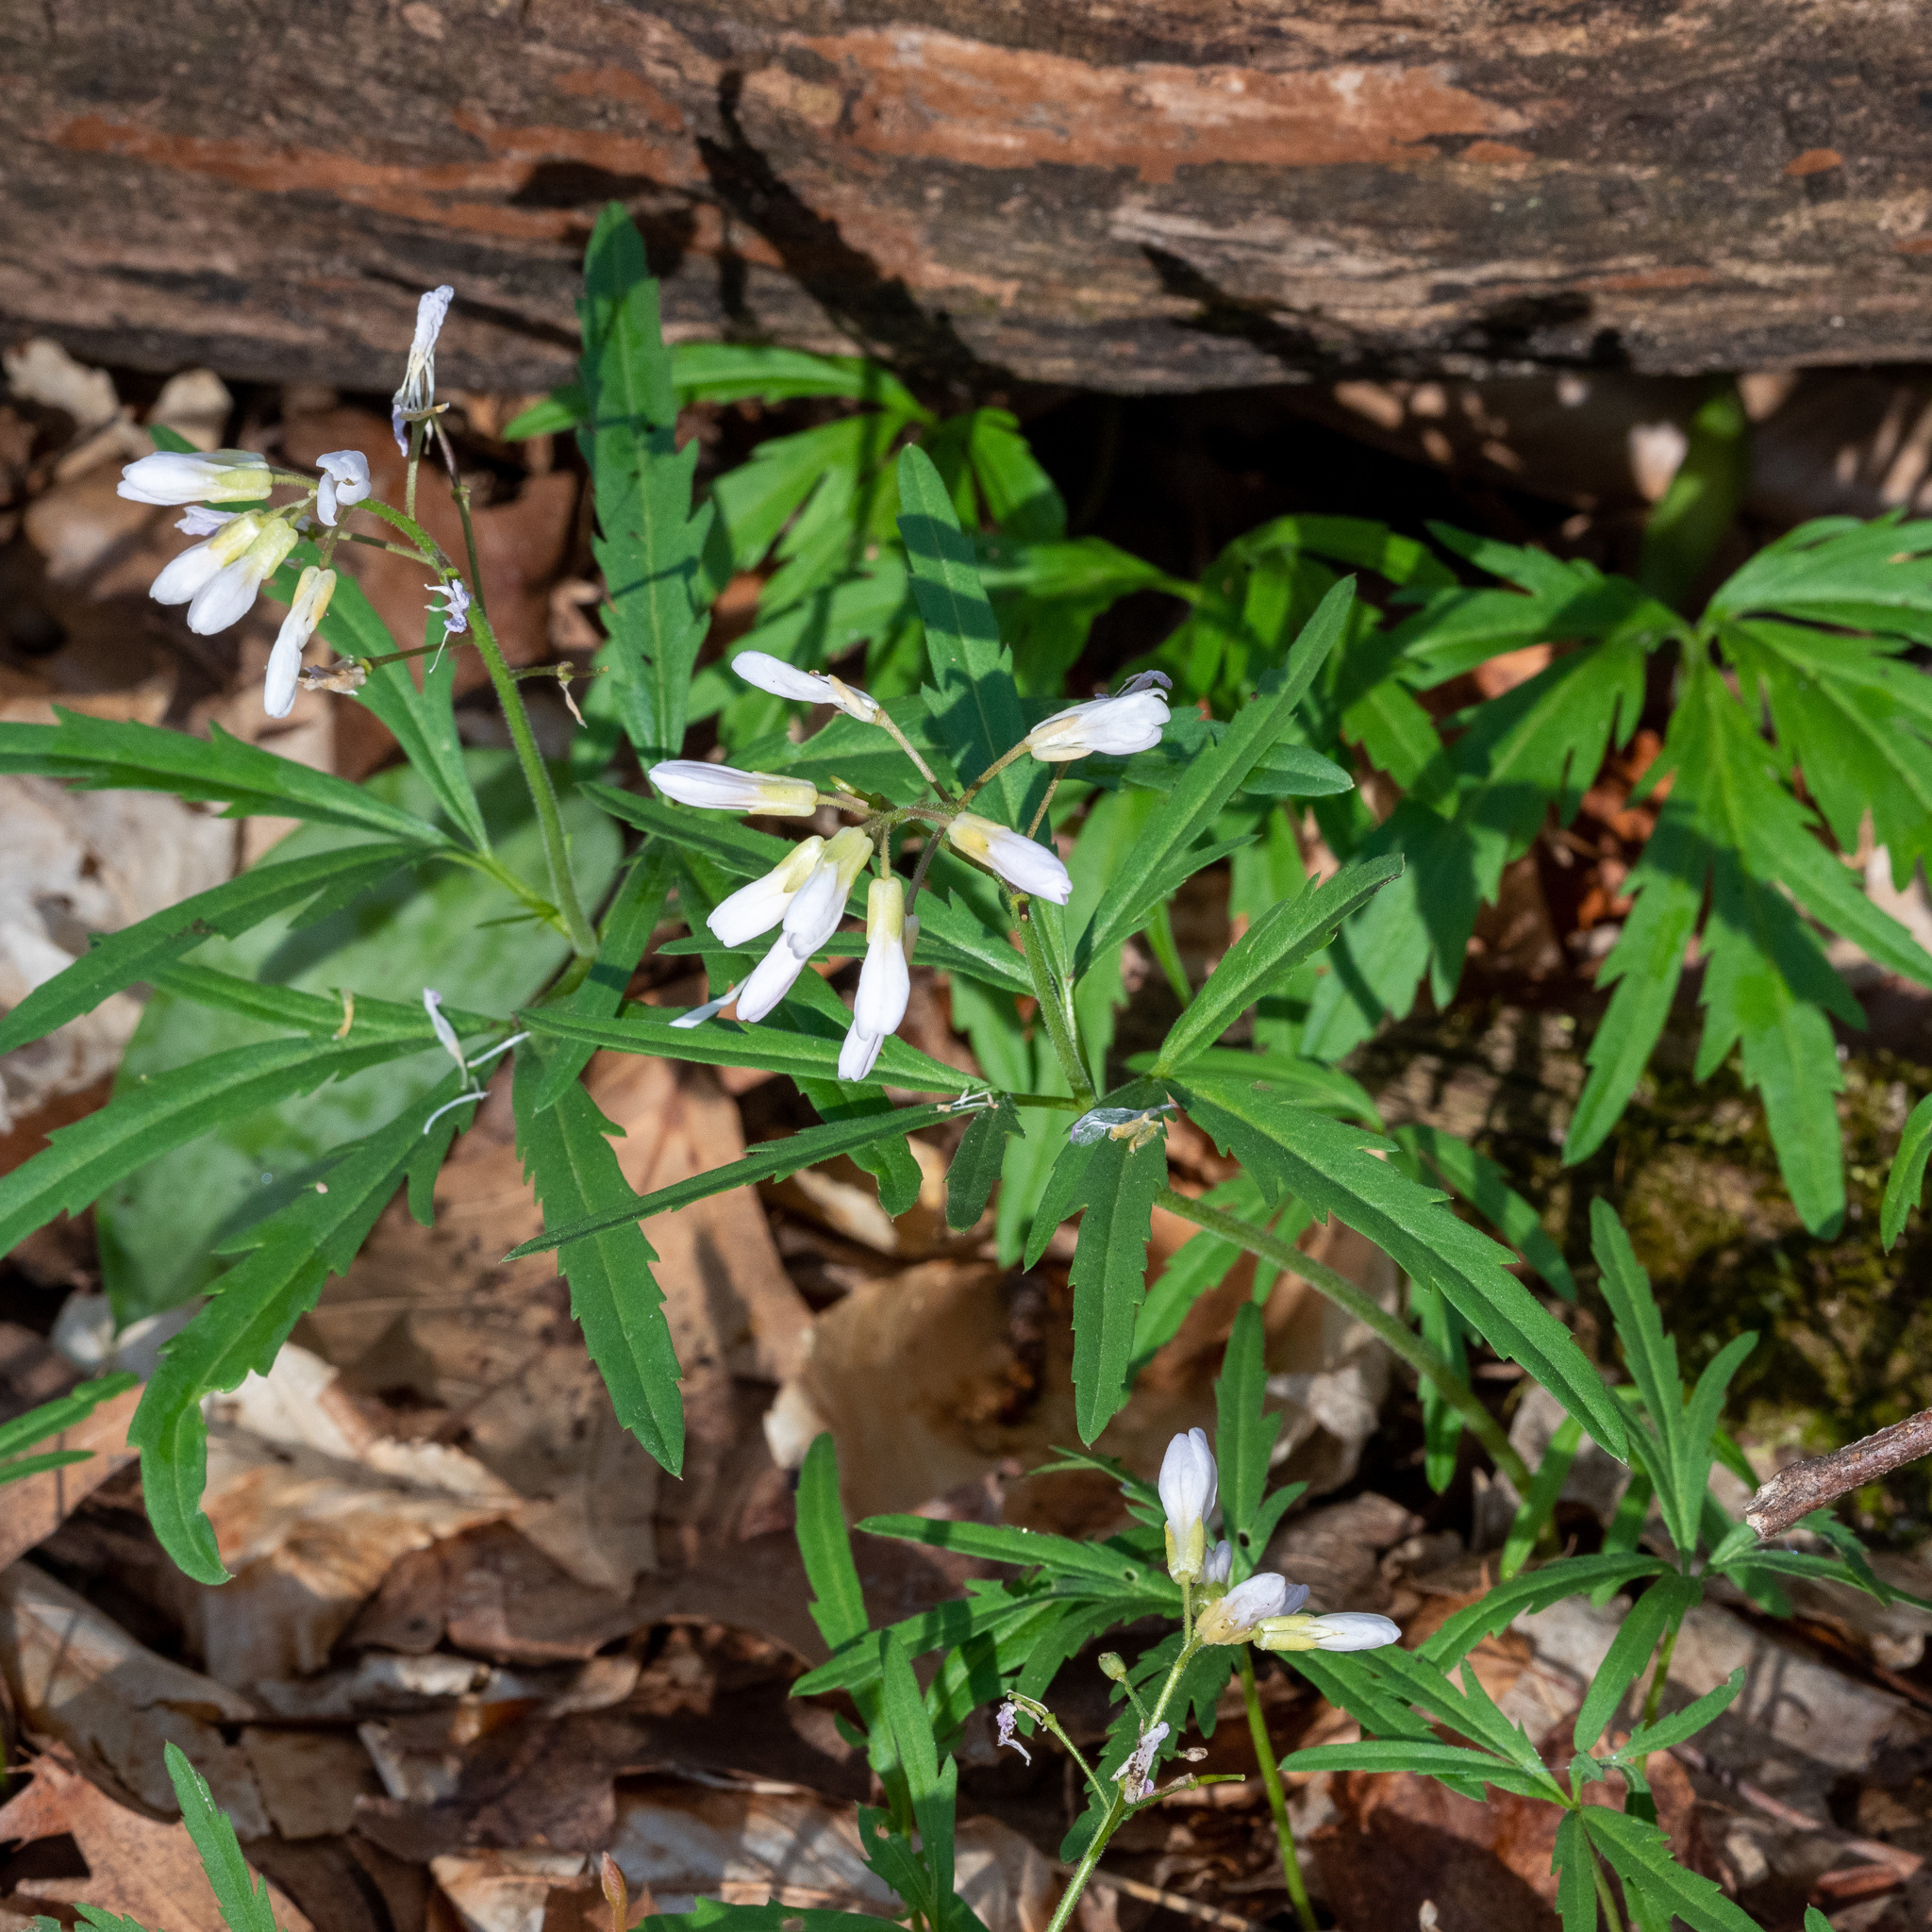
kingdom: Plantae
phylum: Tracheophyta
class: Magnoliopsida
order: Brassicales
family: Brassicaceae
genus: Cardamine
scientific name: Cardamine concatenata
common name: Cut-leaf toothcup
